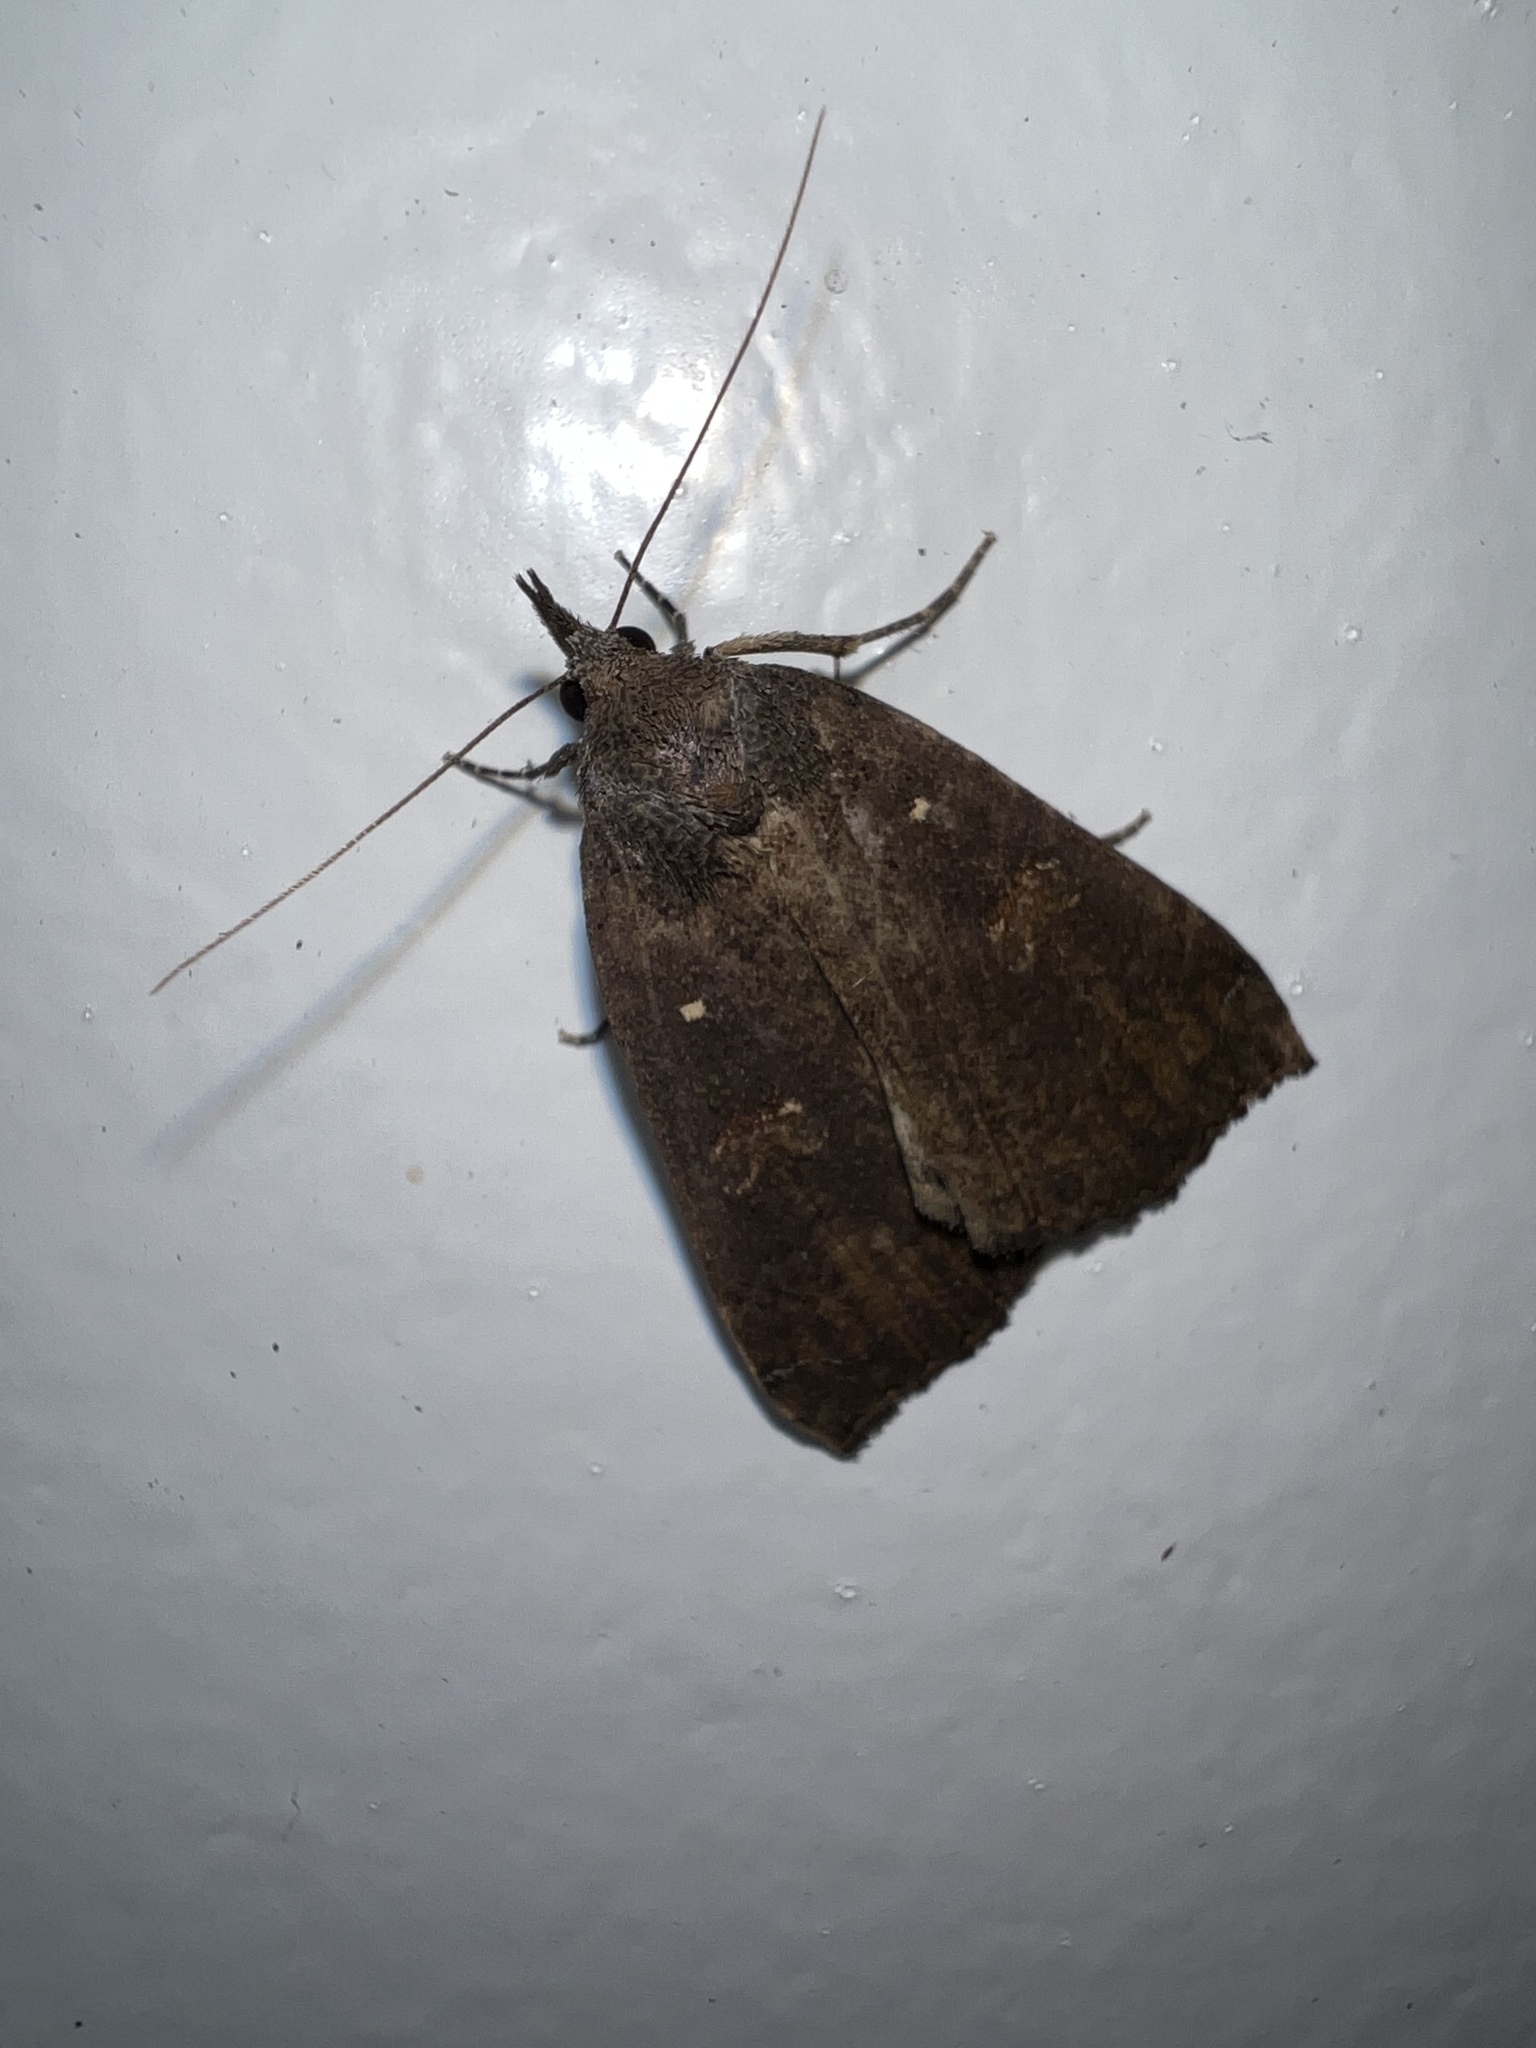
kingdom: Animalia
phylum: Arthropoda
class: Insecta
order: Lepidoptera
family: Erebidae
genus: Rhapsa
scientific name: Rhapsa scotosialis
